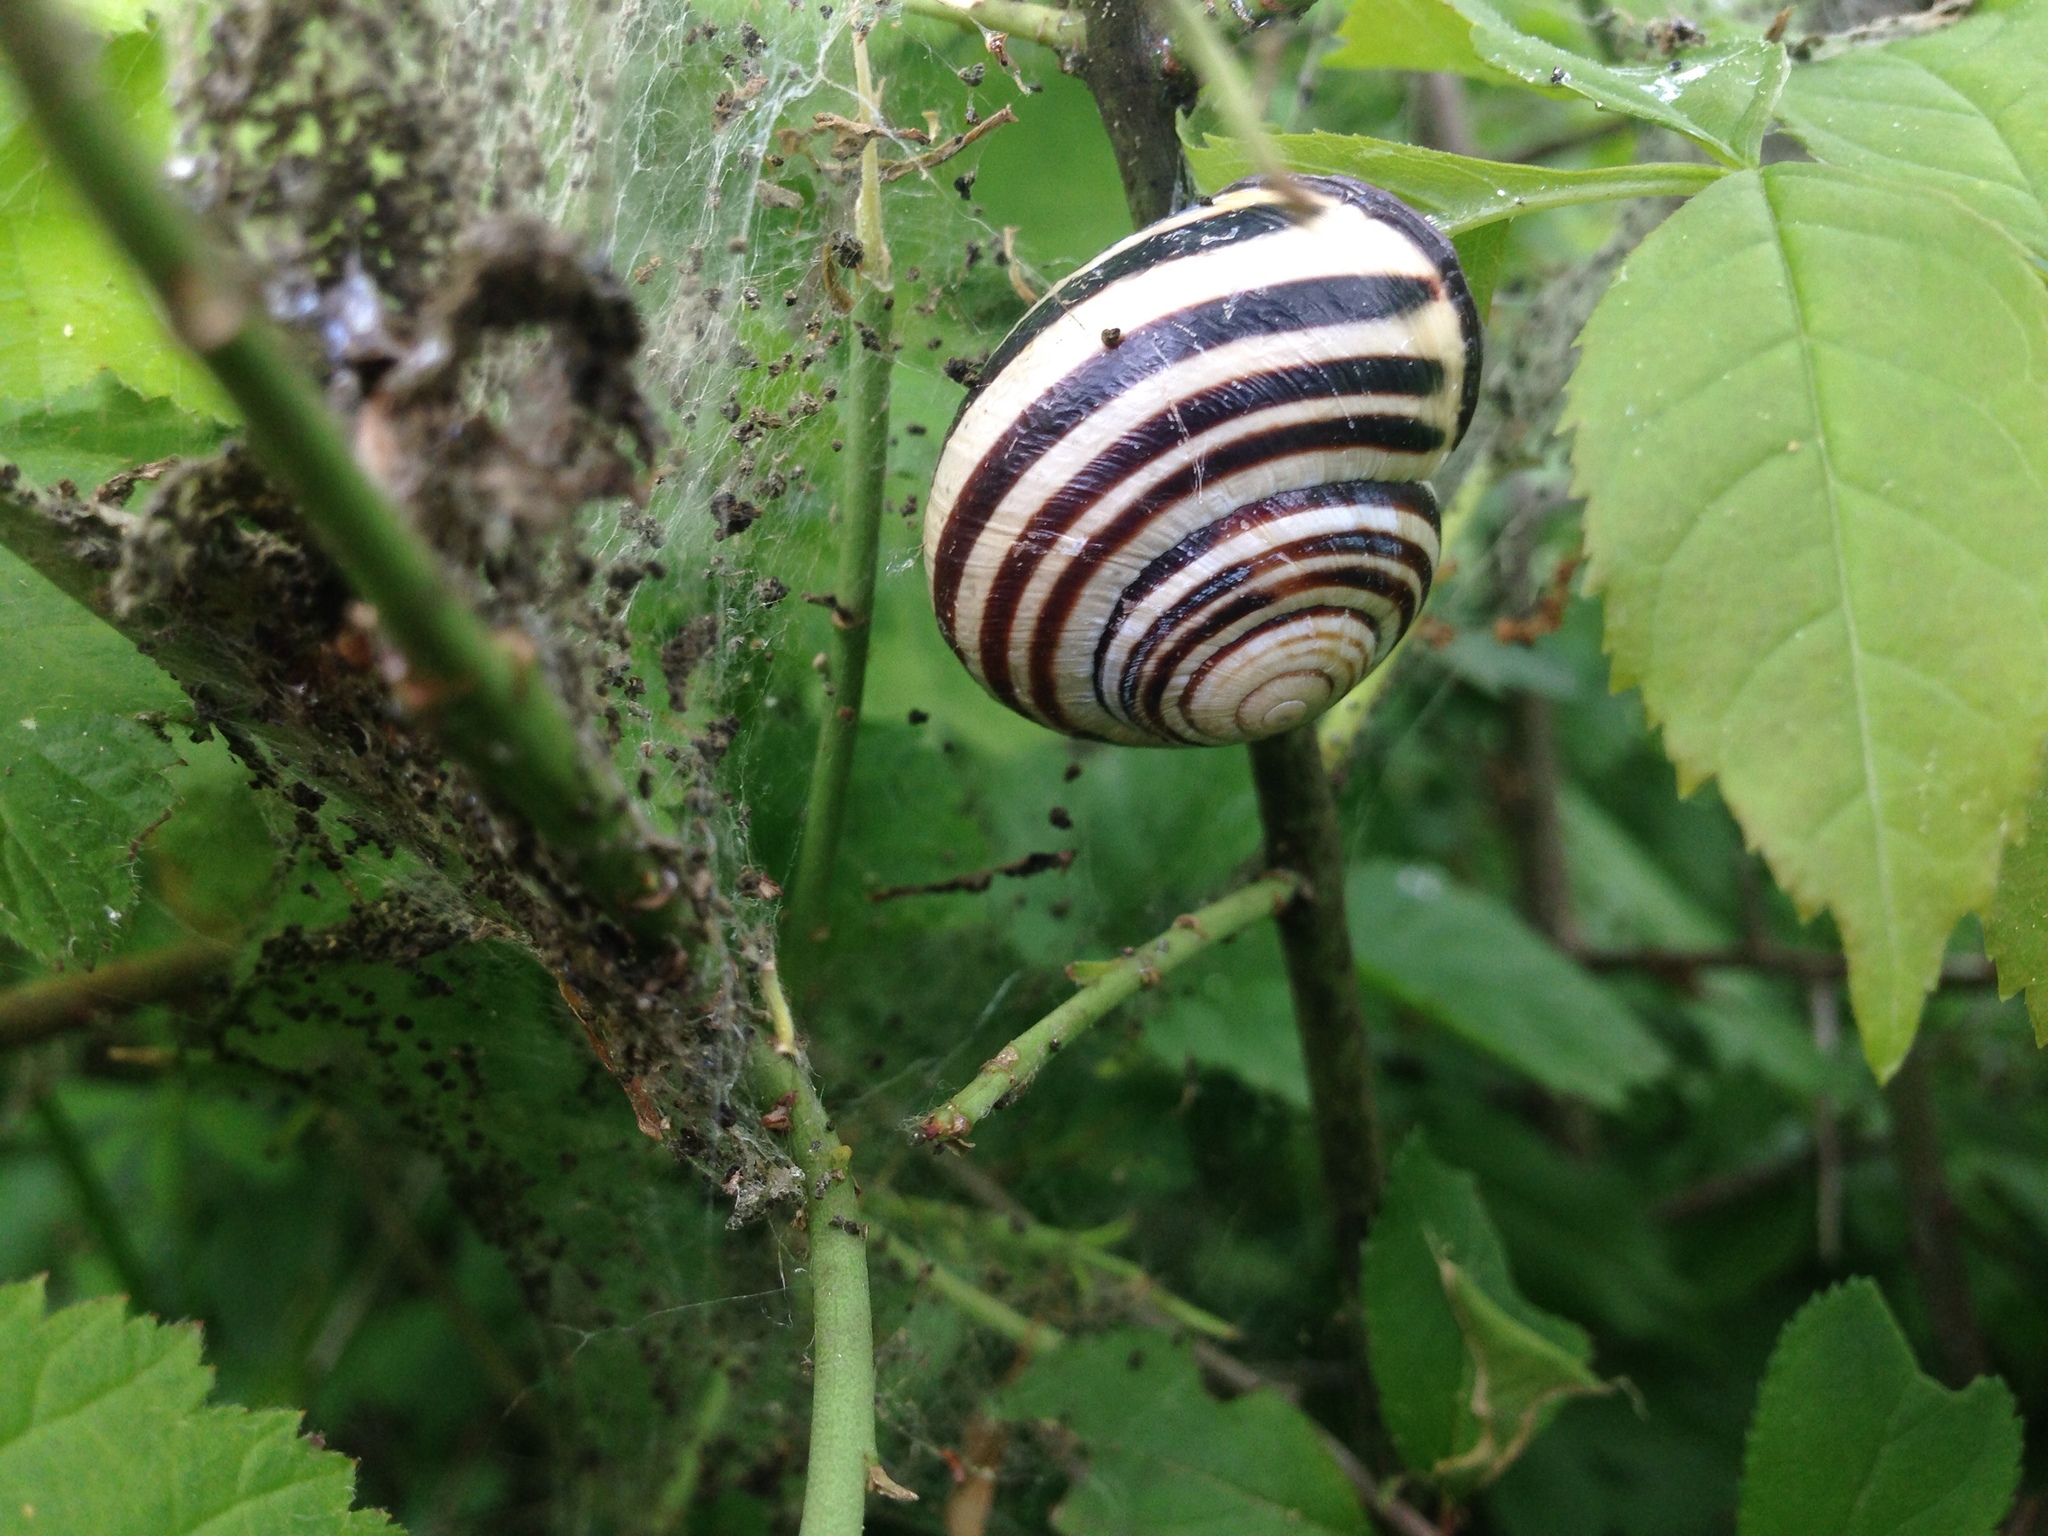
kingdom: Animalia
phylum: Mollusca
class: Gastropoda
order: Stylommatophora
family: Helicidae
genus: Cepaea
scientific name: Cepaea nemoralis
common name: Grovesnail
